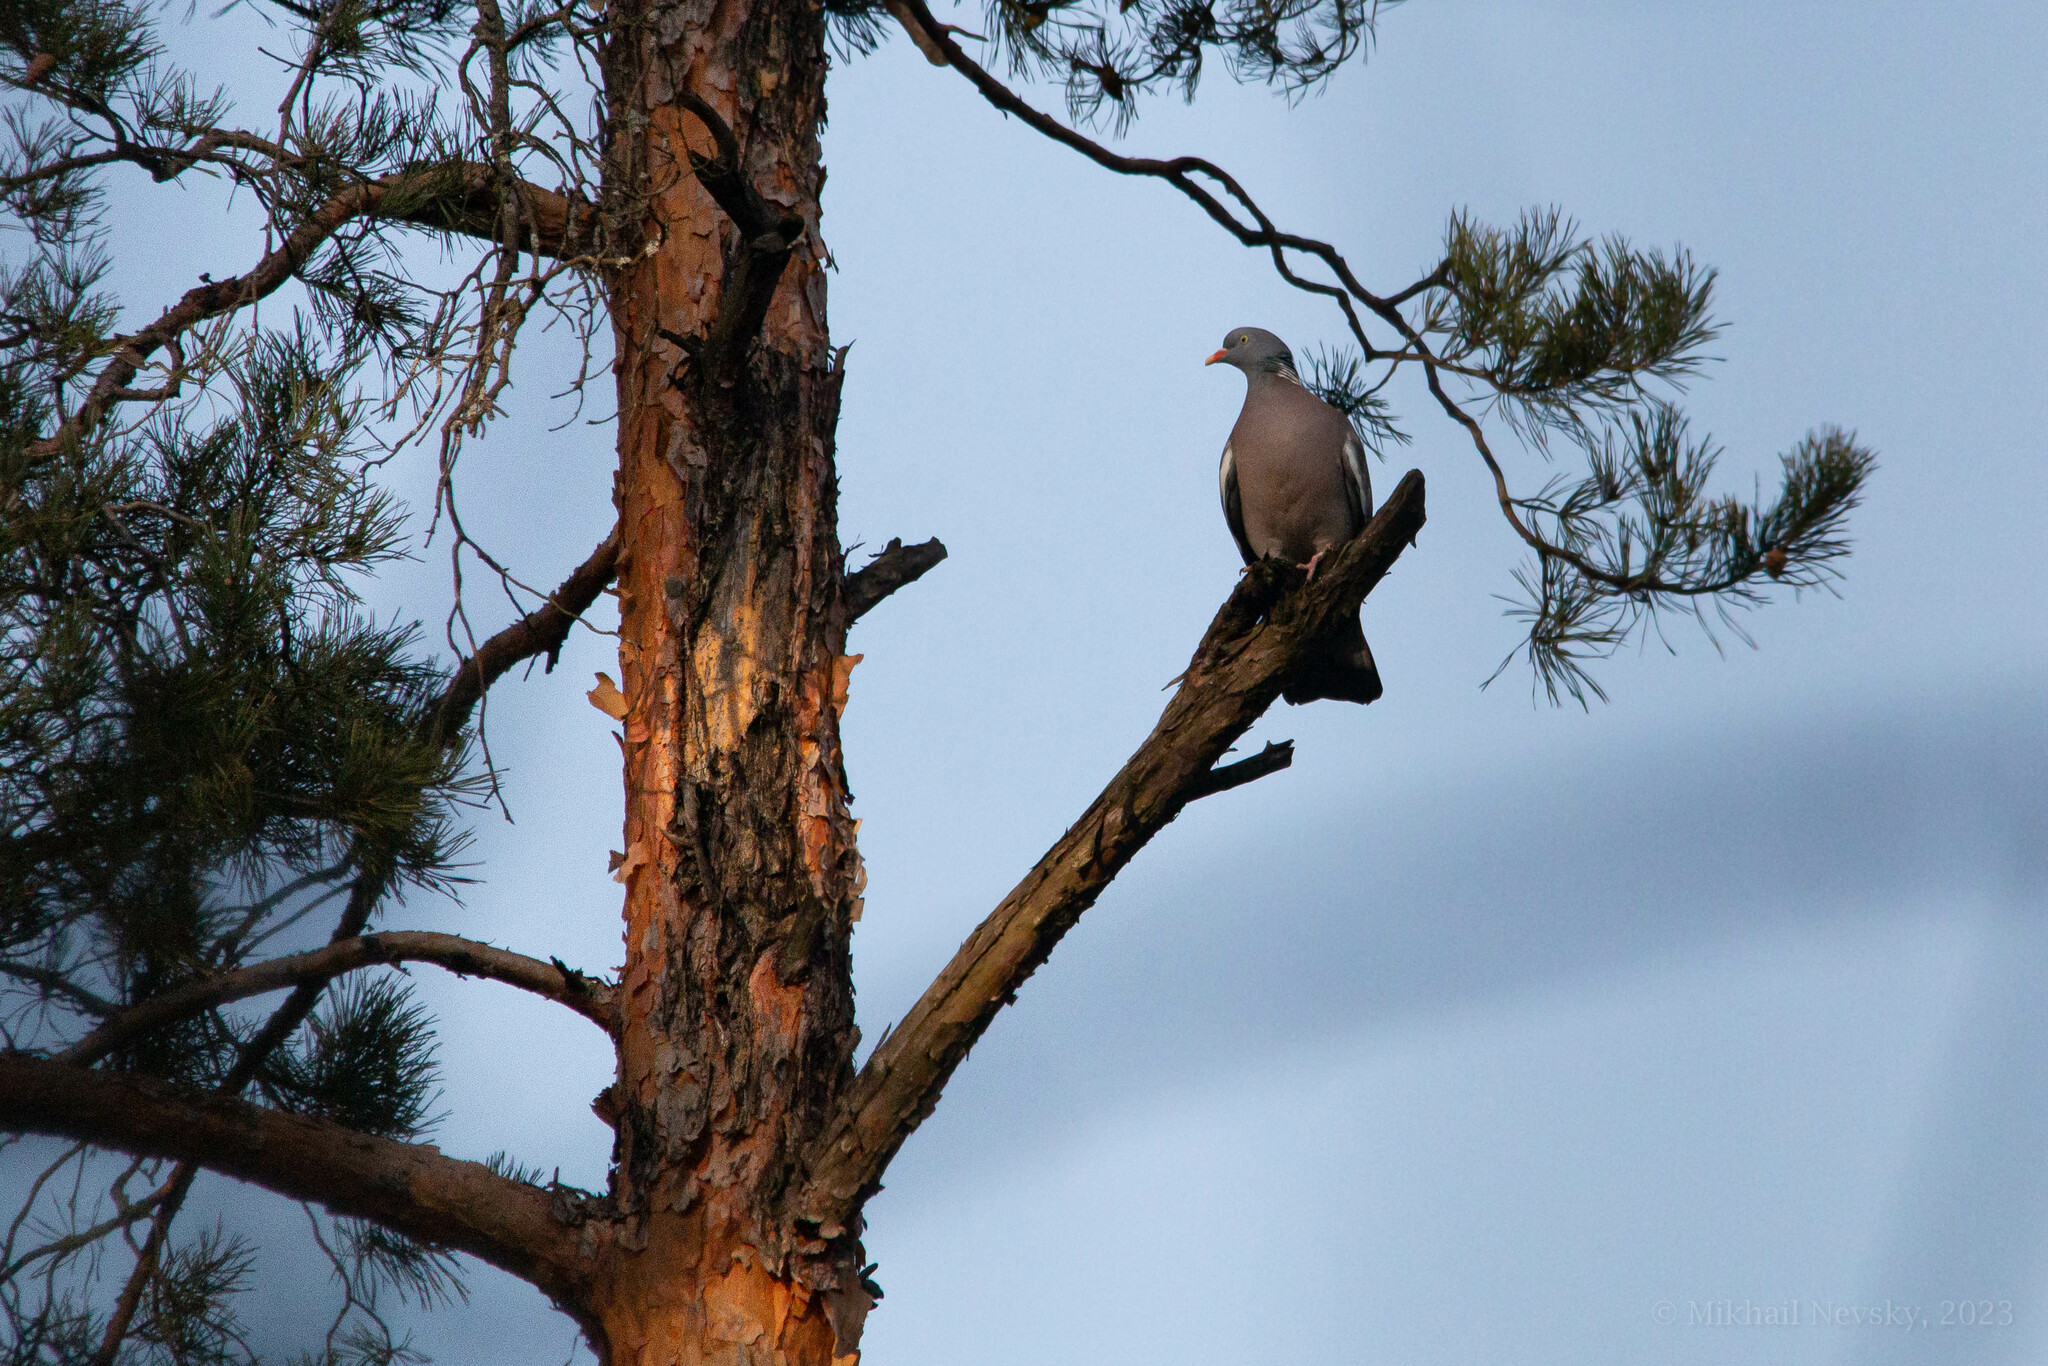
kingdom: Animalia
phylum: Chordata
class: Aves
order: Columbiformes
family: Columbidae
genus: Columba
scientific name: Columba palumbus
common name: Common wood pigeon
